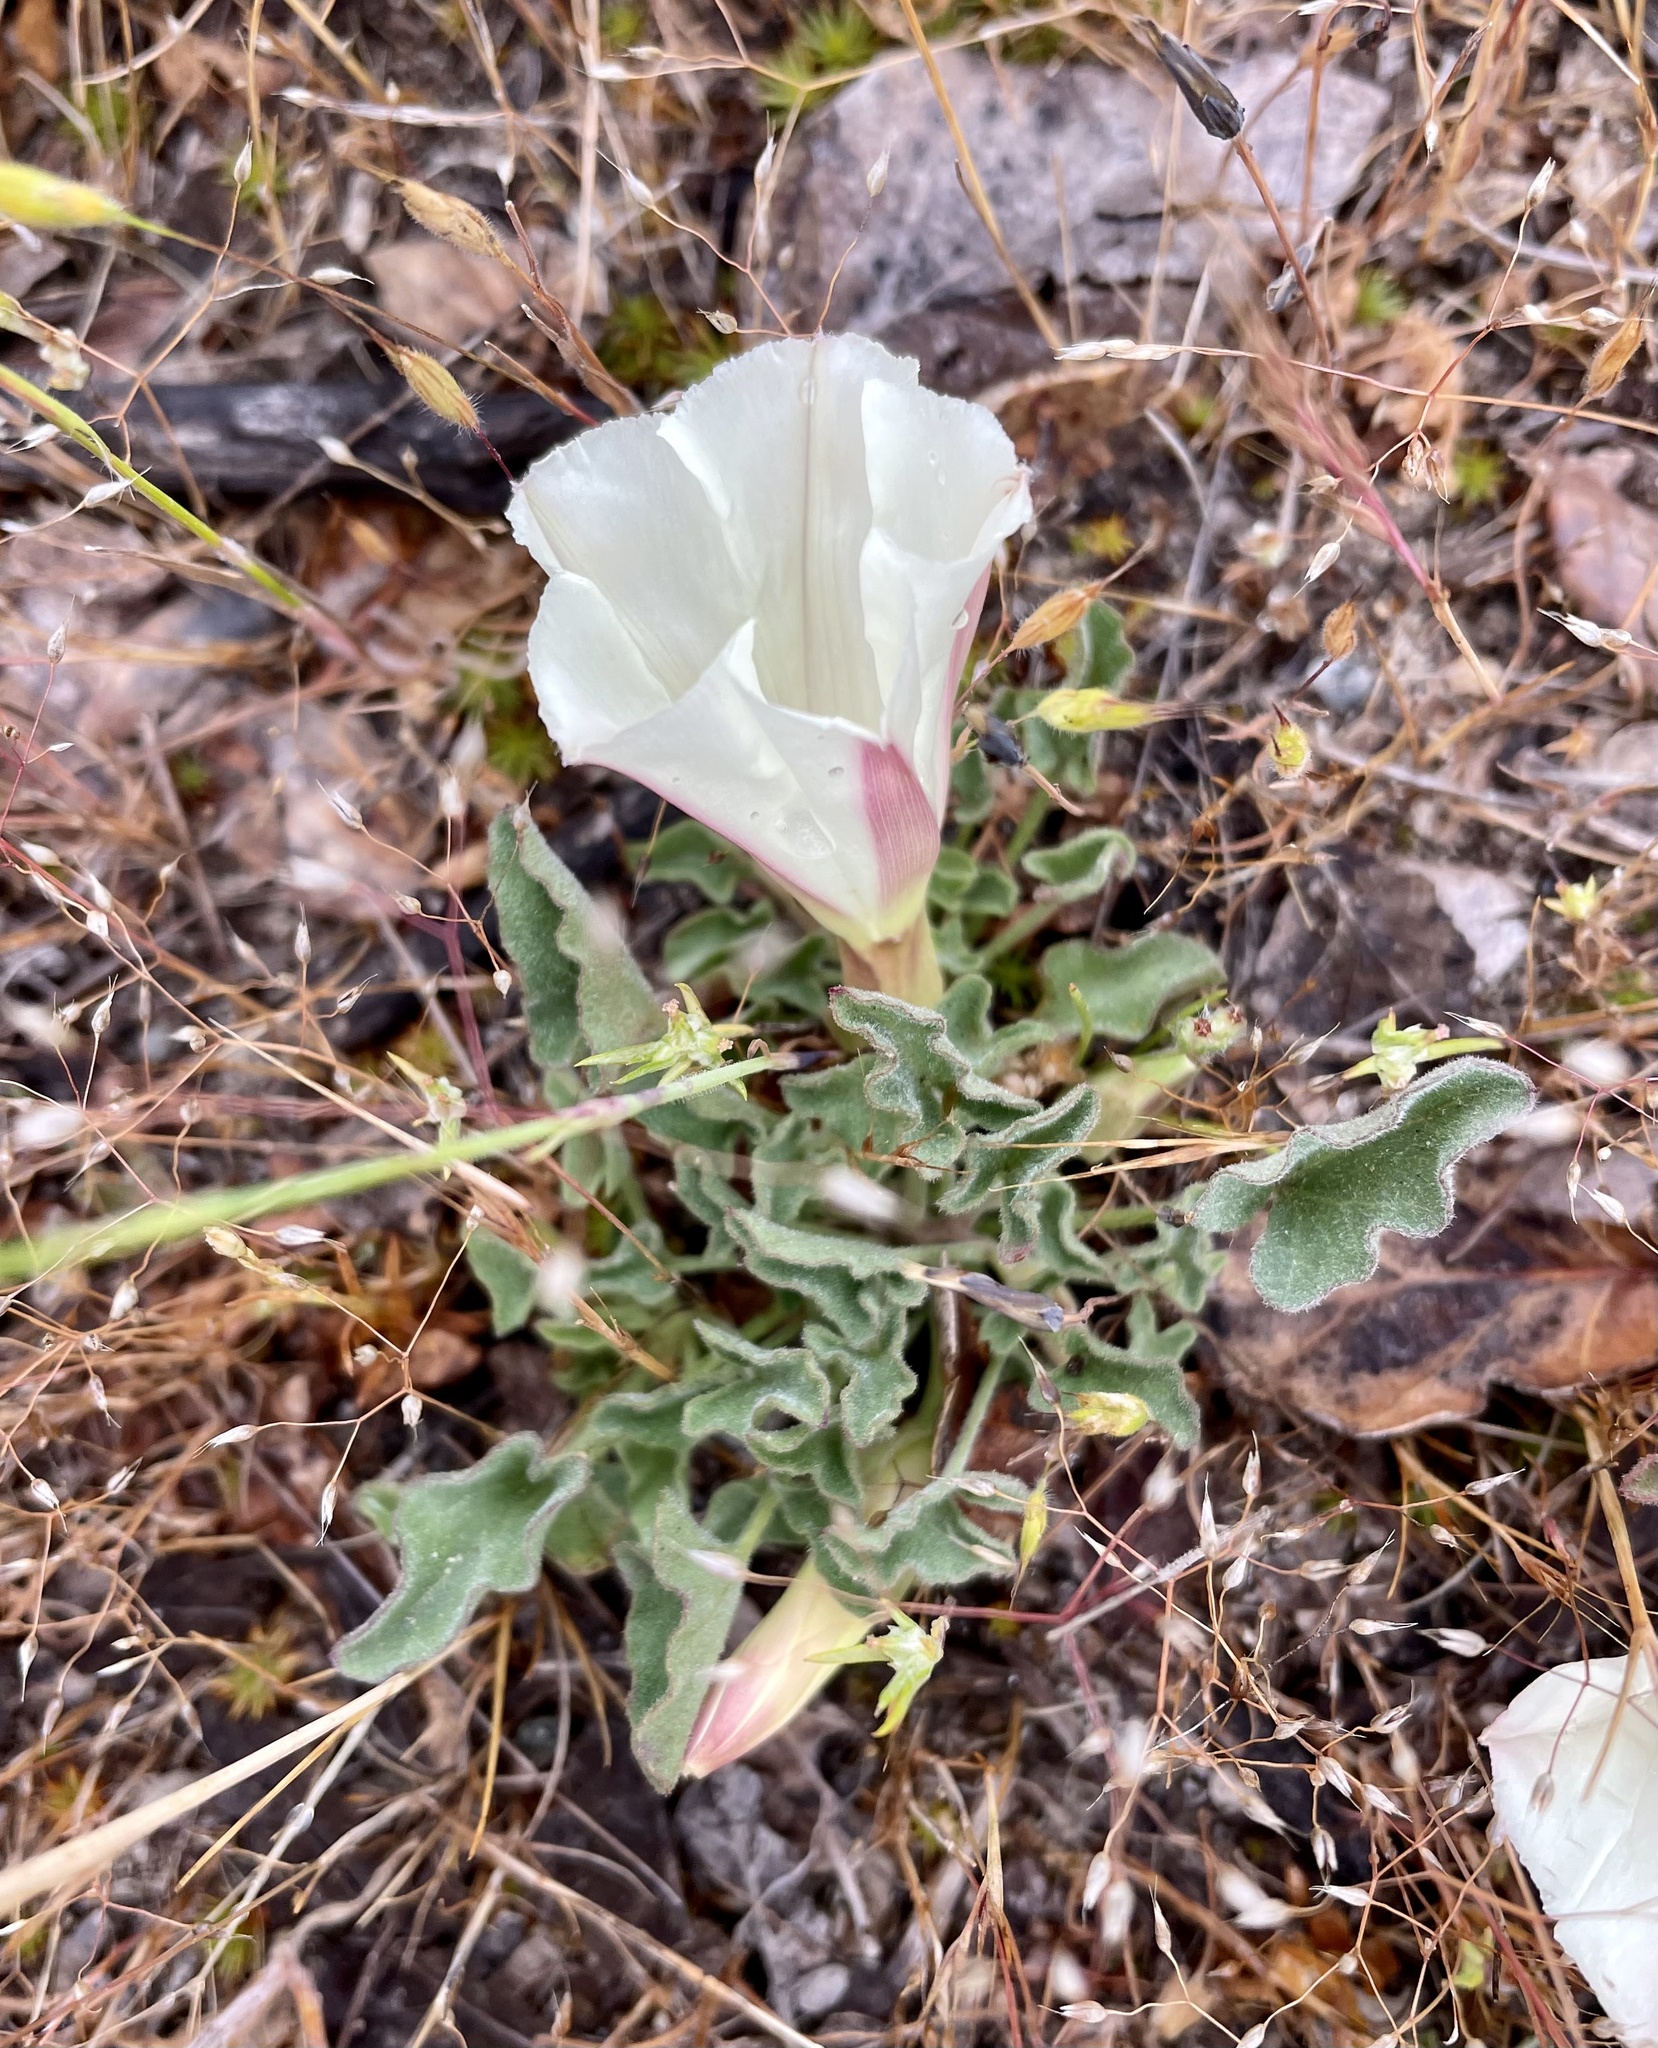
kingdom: Plantae
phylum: Tracheophyta
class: Magnoliopsida
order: Solanales
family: Convolvulaceae
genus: Calystegia
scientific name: Calystegia subacaulis
